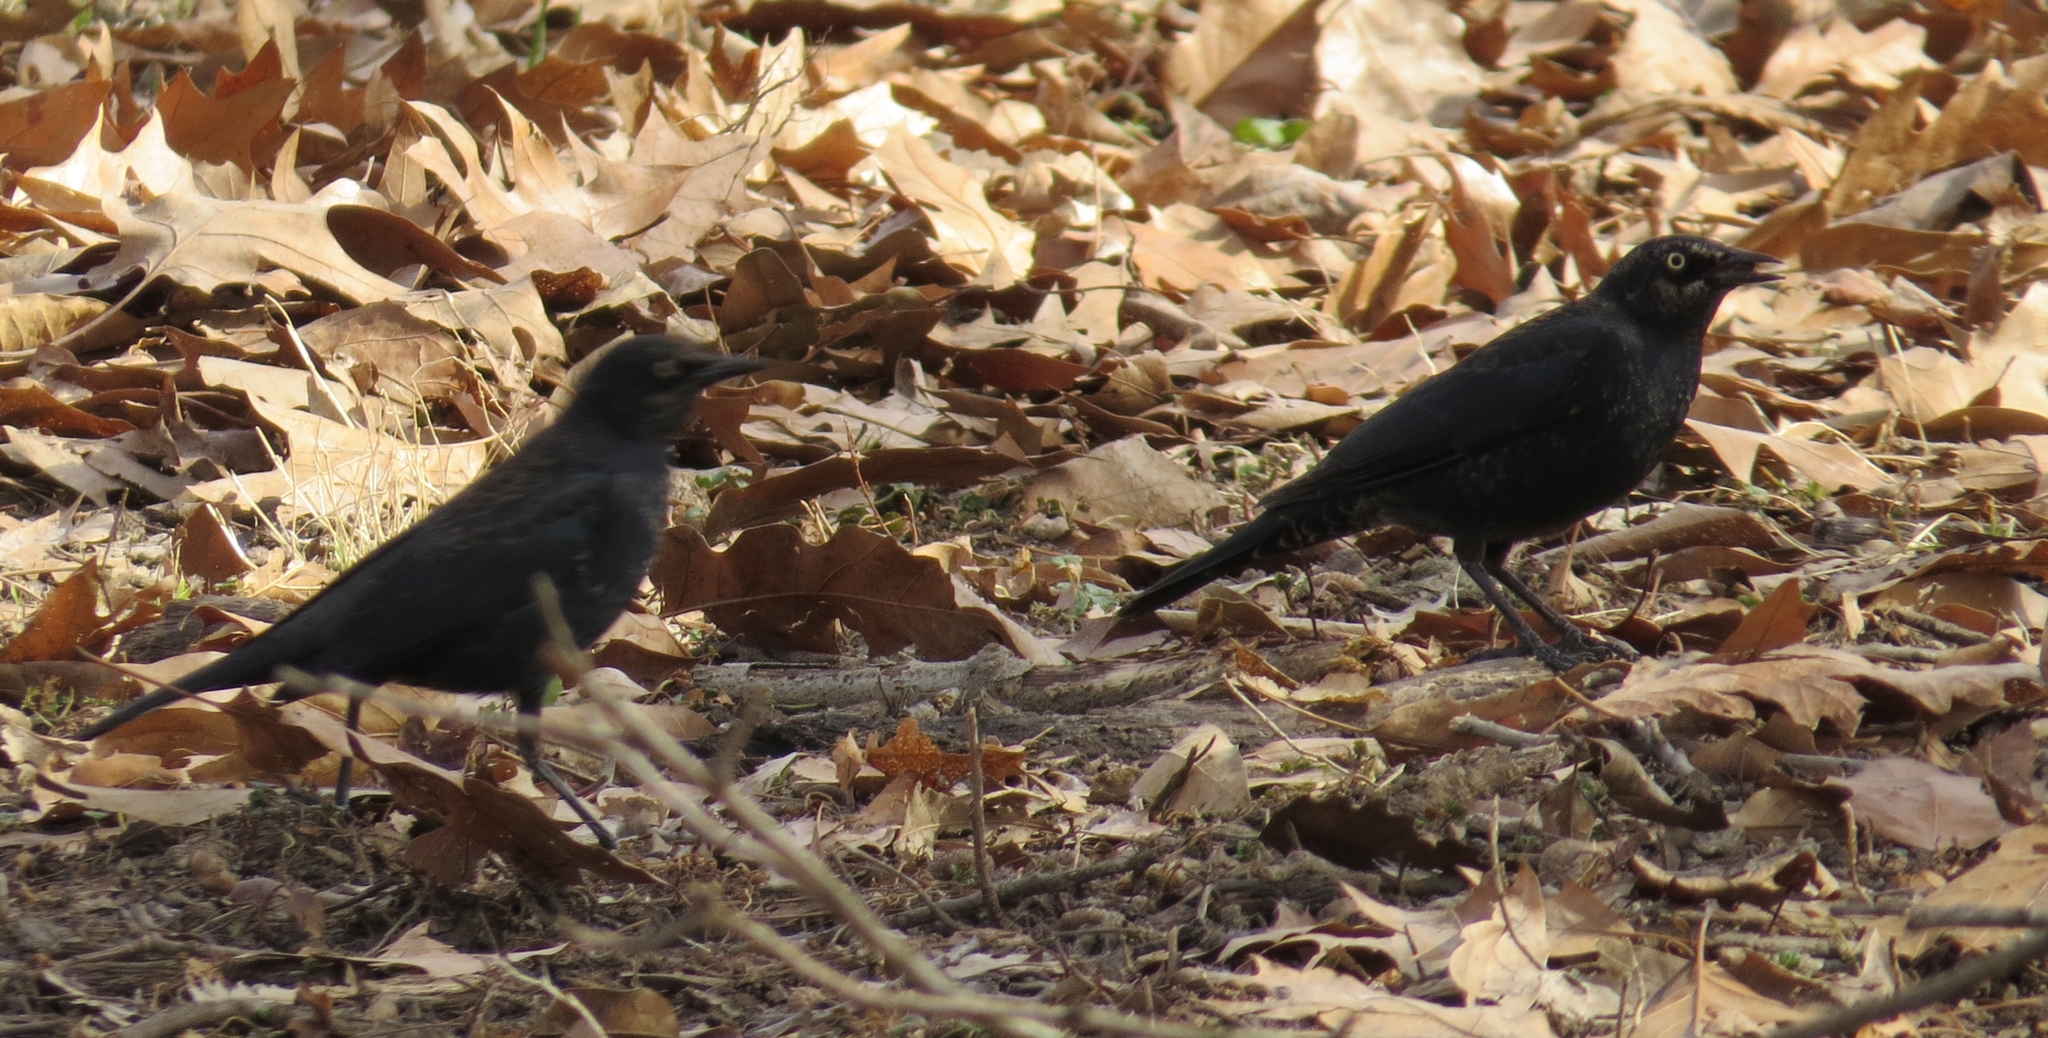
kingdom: Animalia
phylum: Chordata
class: Aves
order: Passeriformes
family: Icteridae
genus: Euphagus
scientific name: Euphagus carolinus
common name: Rusty blackbird
